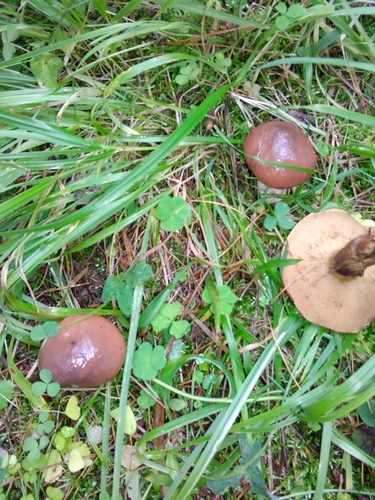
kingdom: Fungi
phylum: Basidiomycota
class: Agaricomycetes
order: Boletales
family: Suillaceae
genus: Suillus
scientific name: Suillus luteus
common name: Slippery jack
